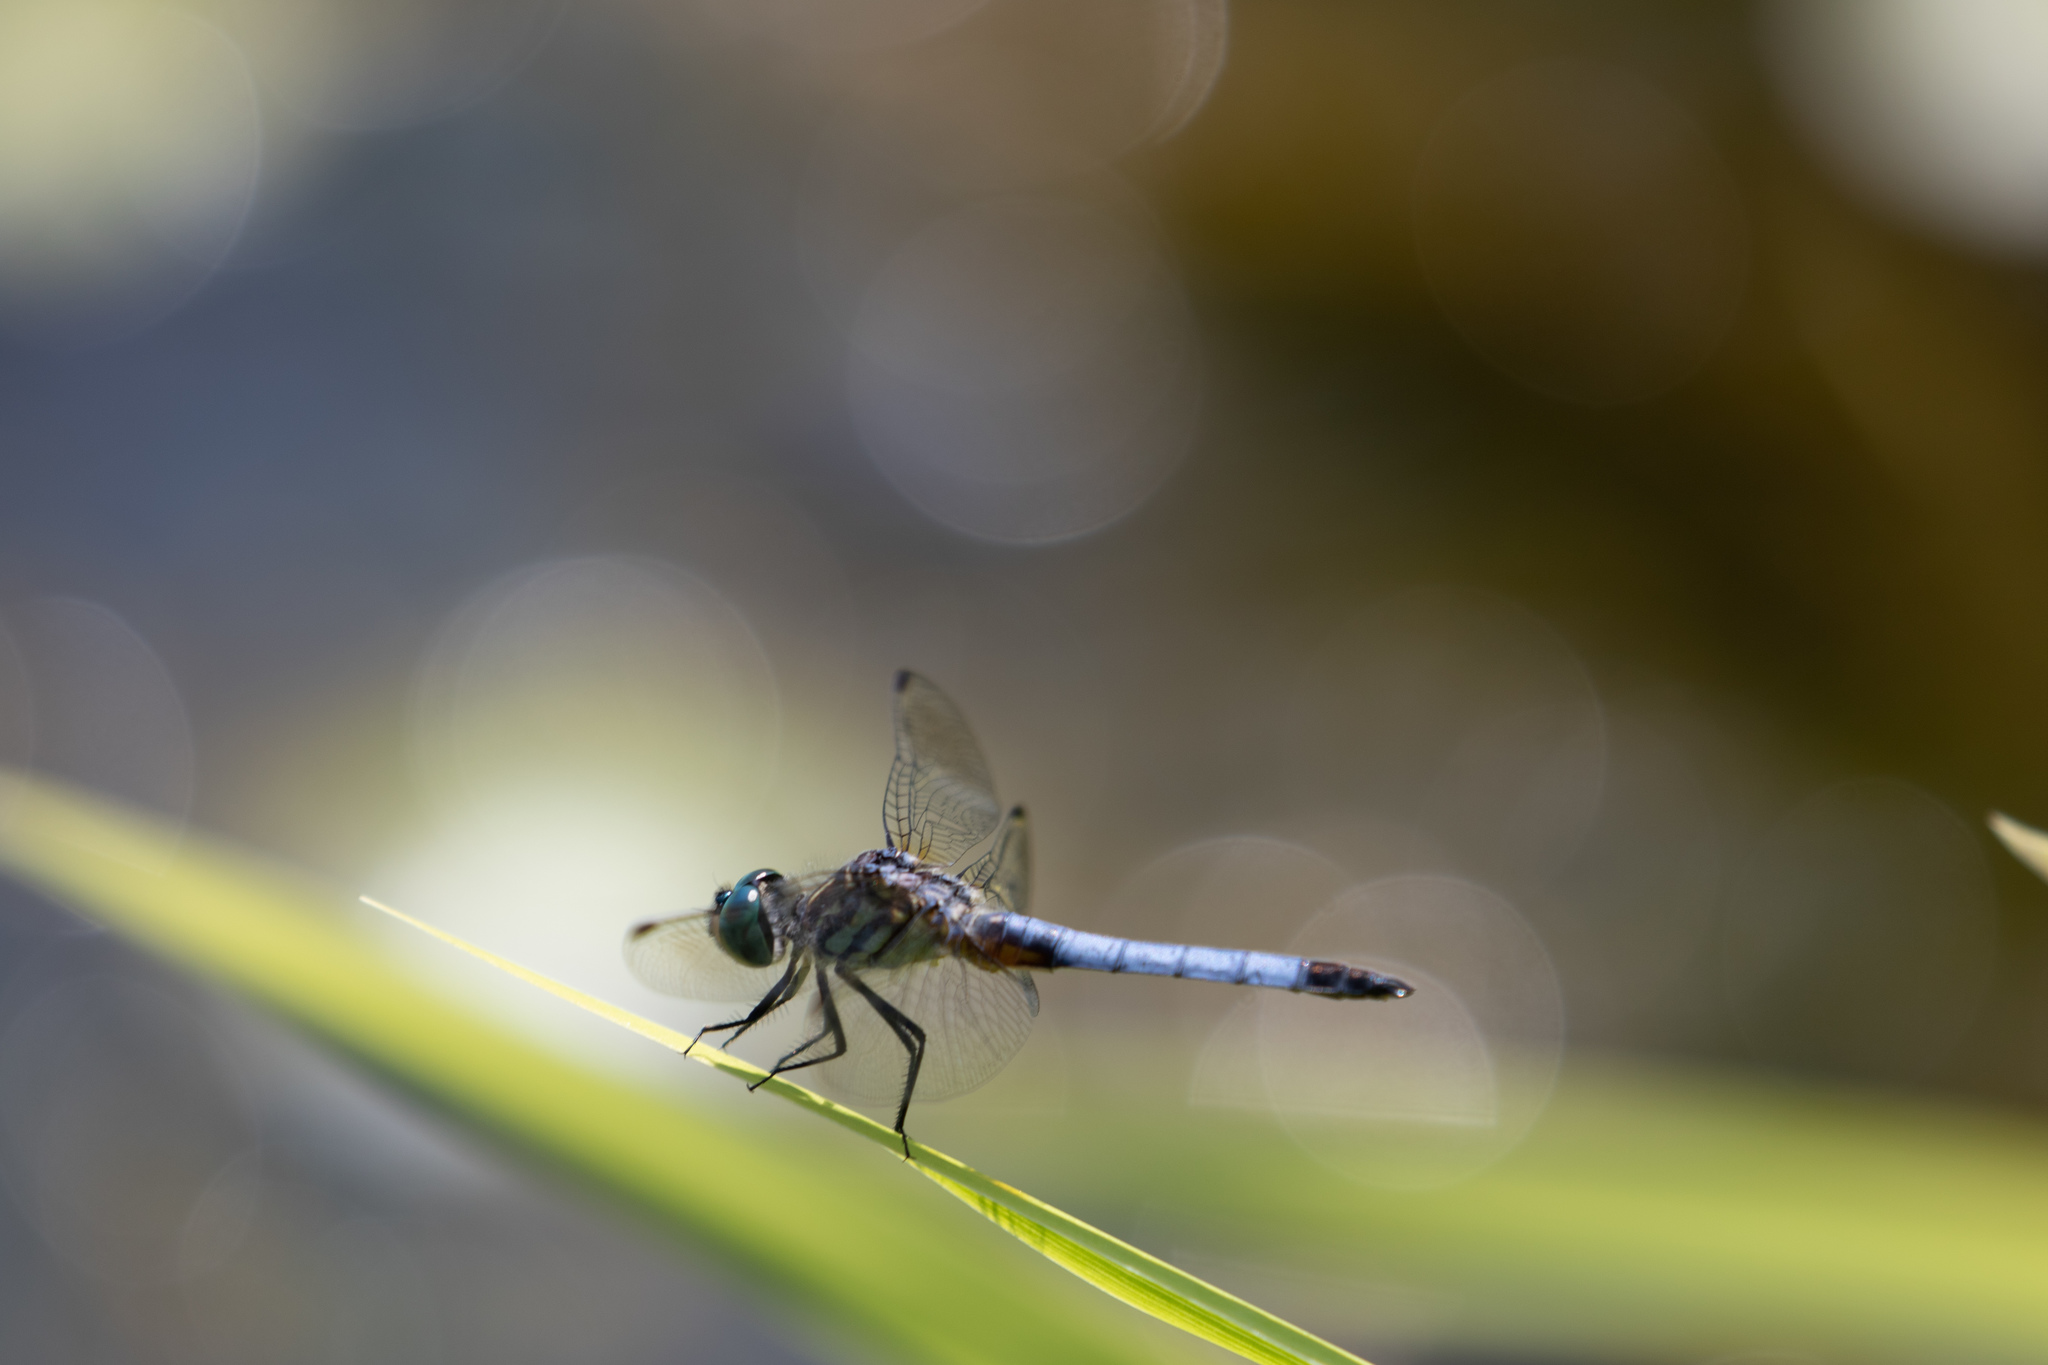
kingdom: Animalia
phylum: Arthropoda
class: Insecta
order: Odonata
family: Libellulidae
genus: Pachydiplax
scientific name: Pachydiplax longipennis
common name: Blue dasher
